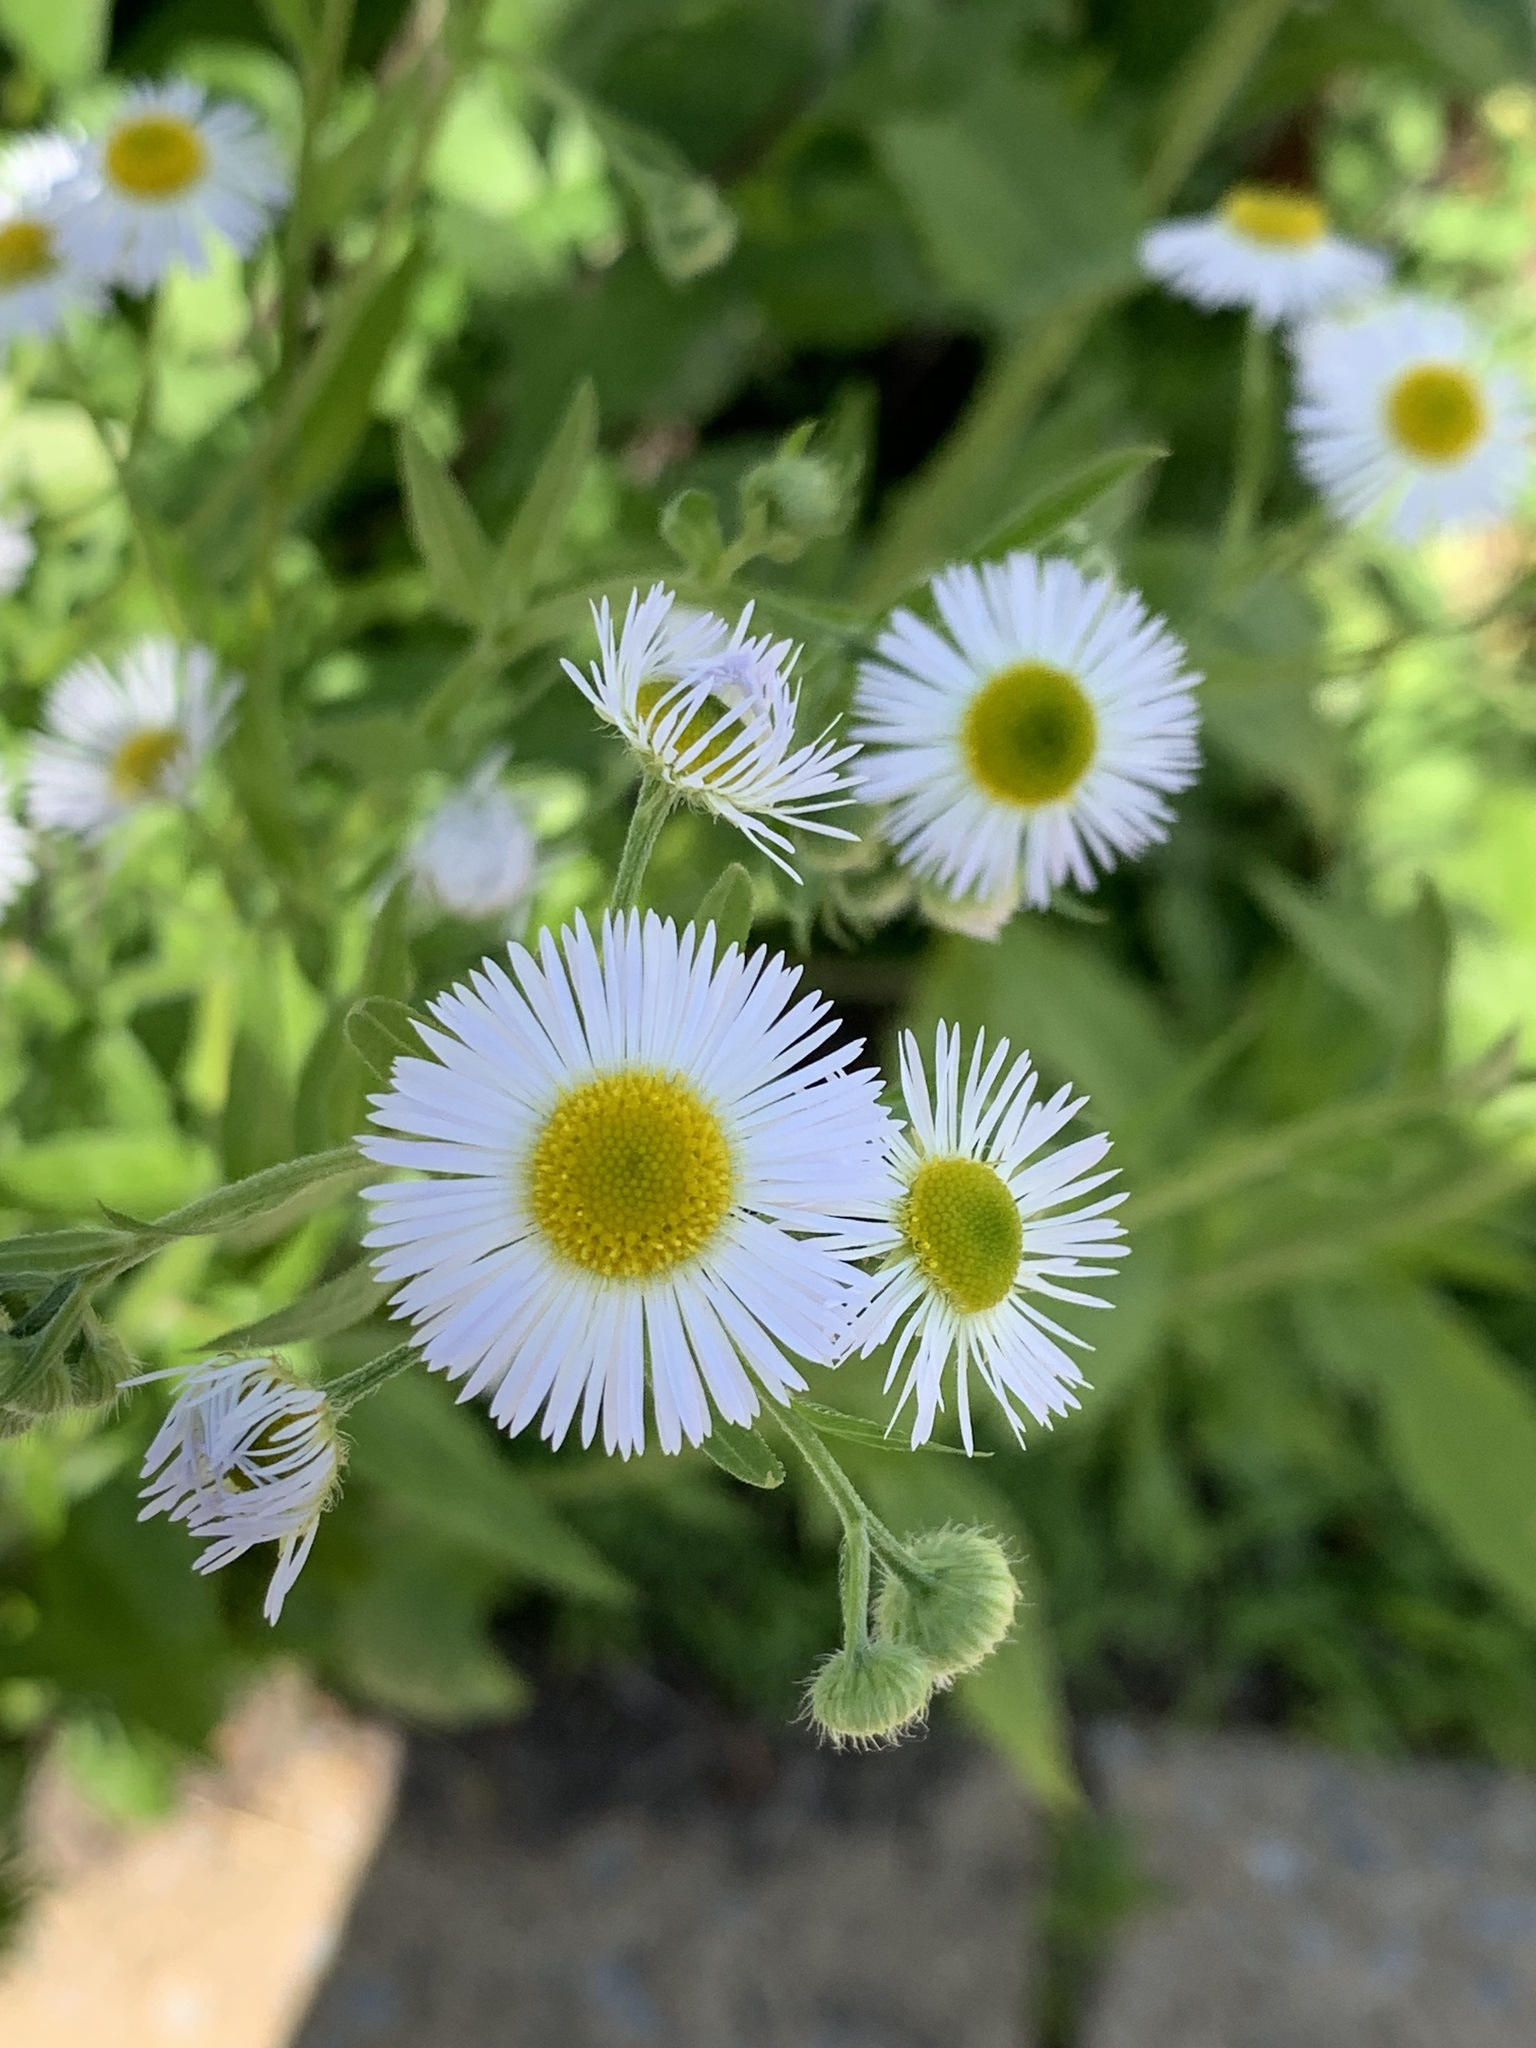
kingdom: Plantae
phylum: Tracheophyta
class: Magnoliopsida
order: Asterales
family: Asteraceae
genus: Erigeron
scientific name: Erigeron annuus
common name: Tall fleabane
